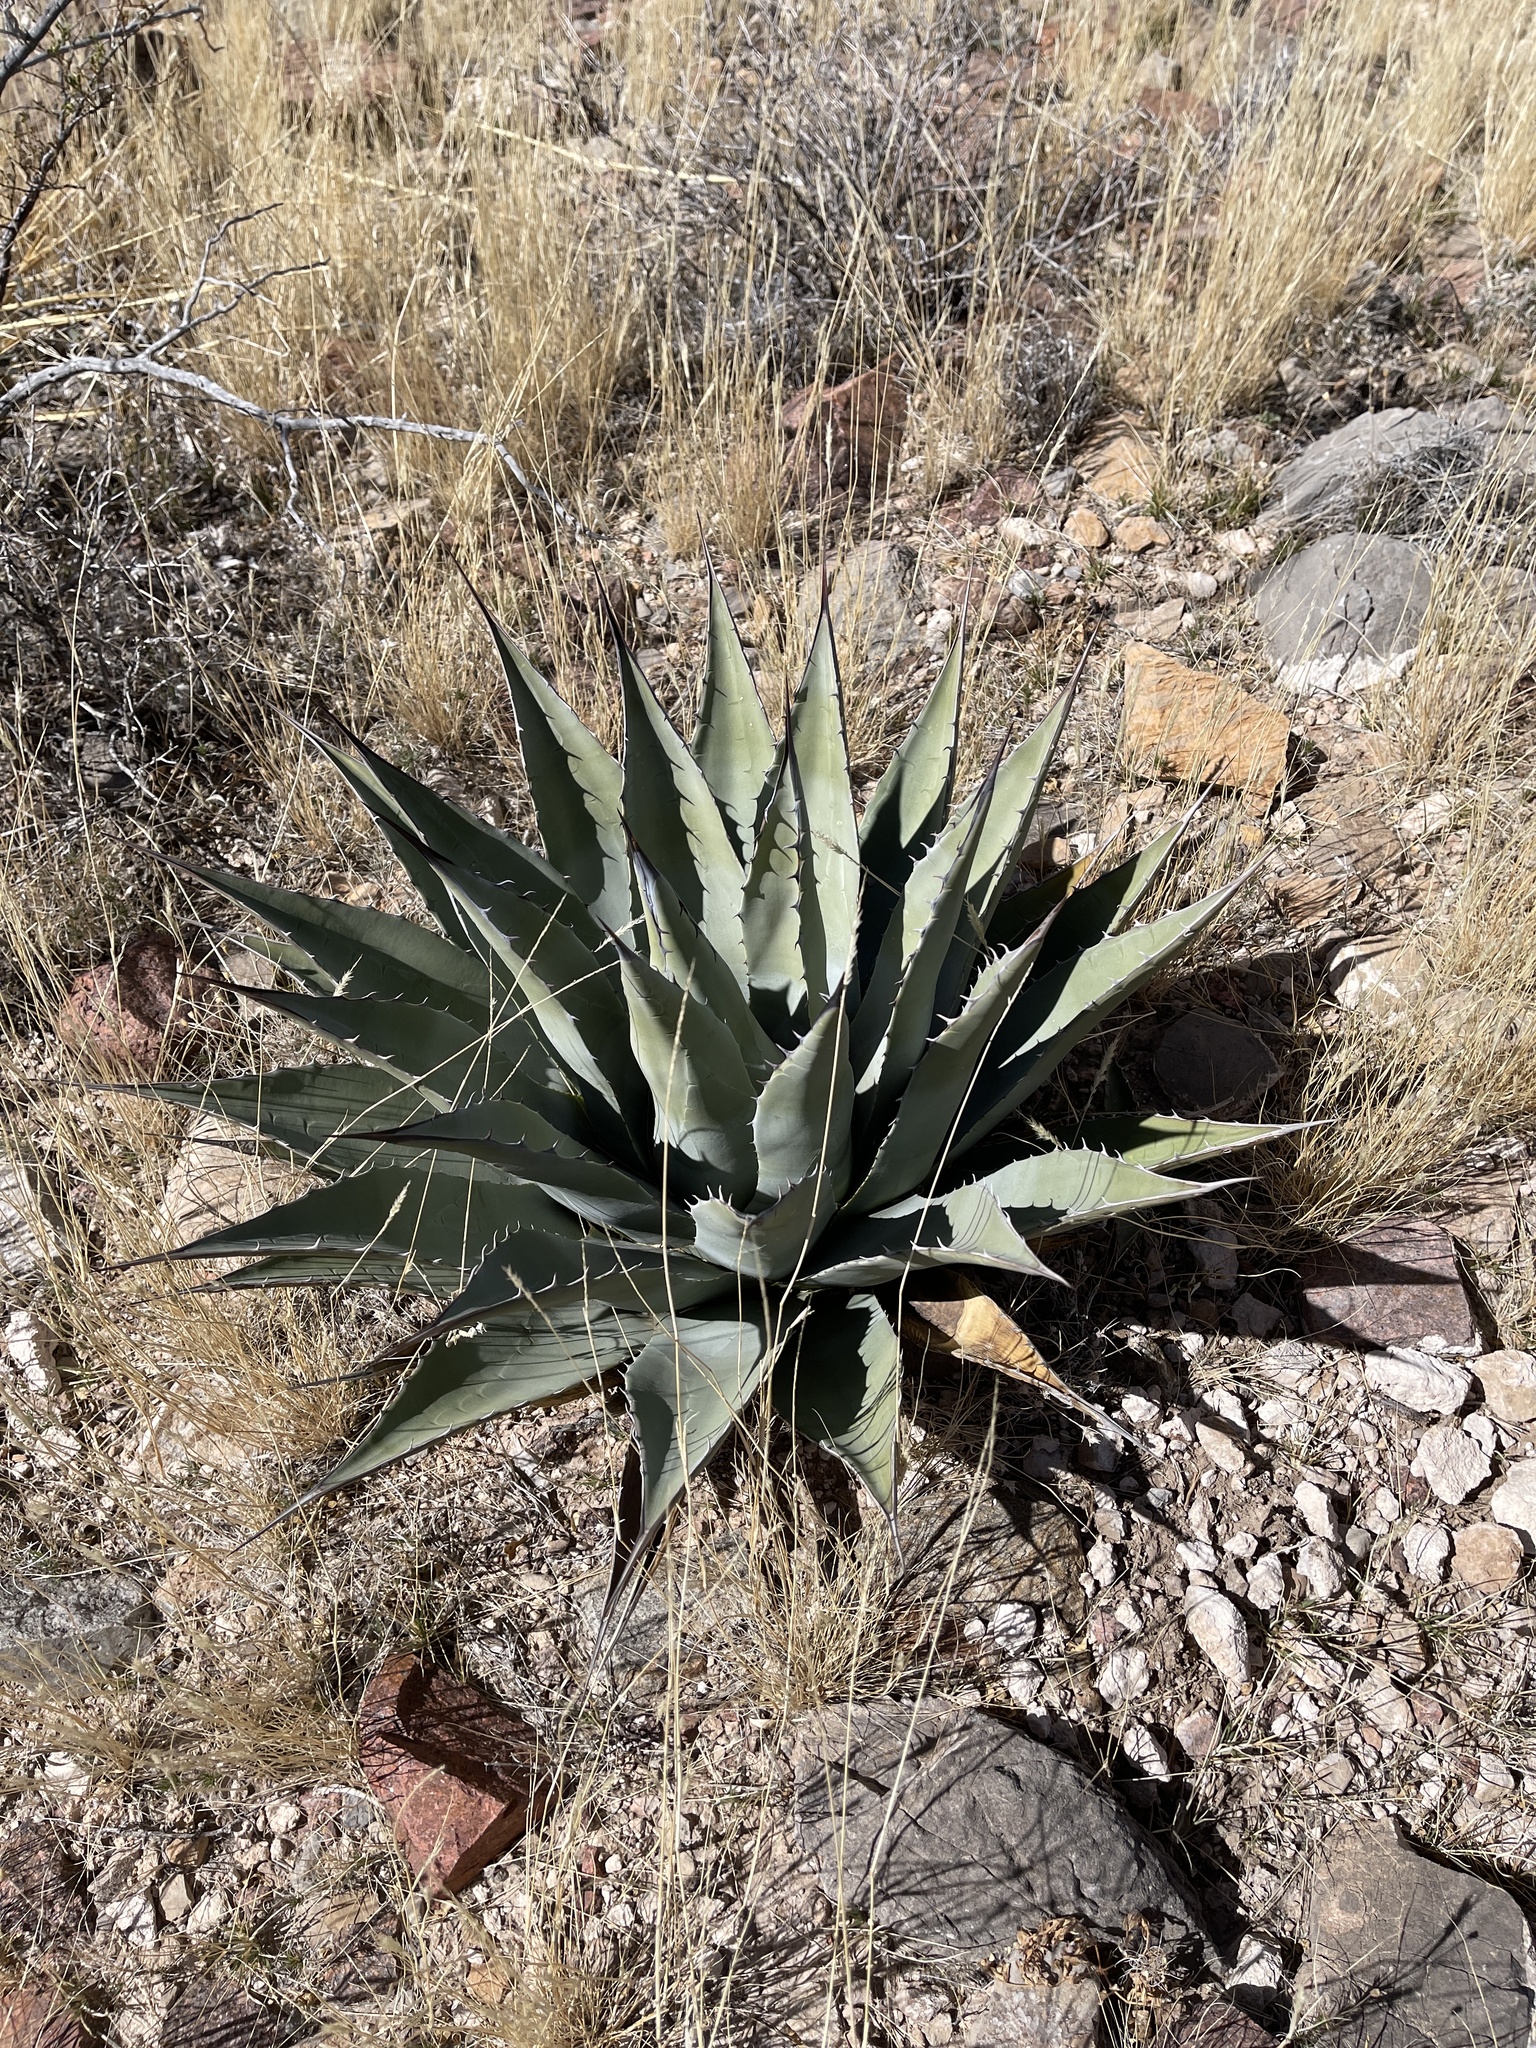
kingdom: Plantae
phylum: Tracheophyta
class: Liliopsida
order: Asparagales
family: Asparagaceae
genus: Agave
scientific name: Agave parryi
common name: Parry's agave
